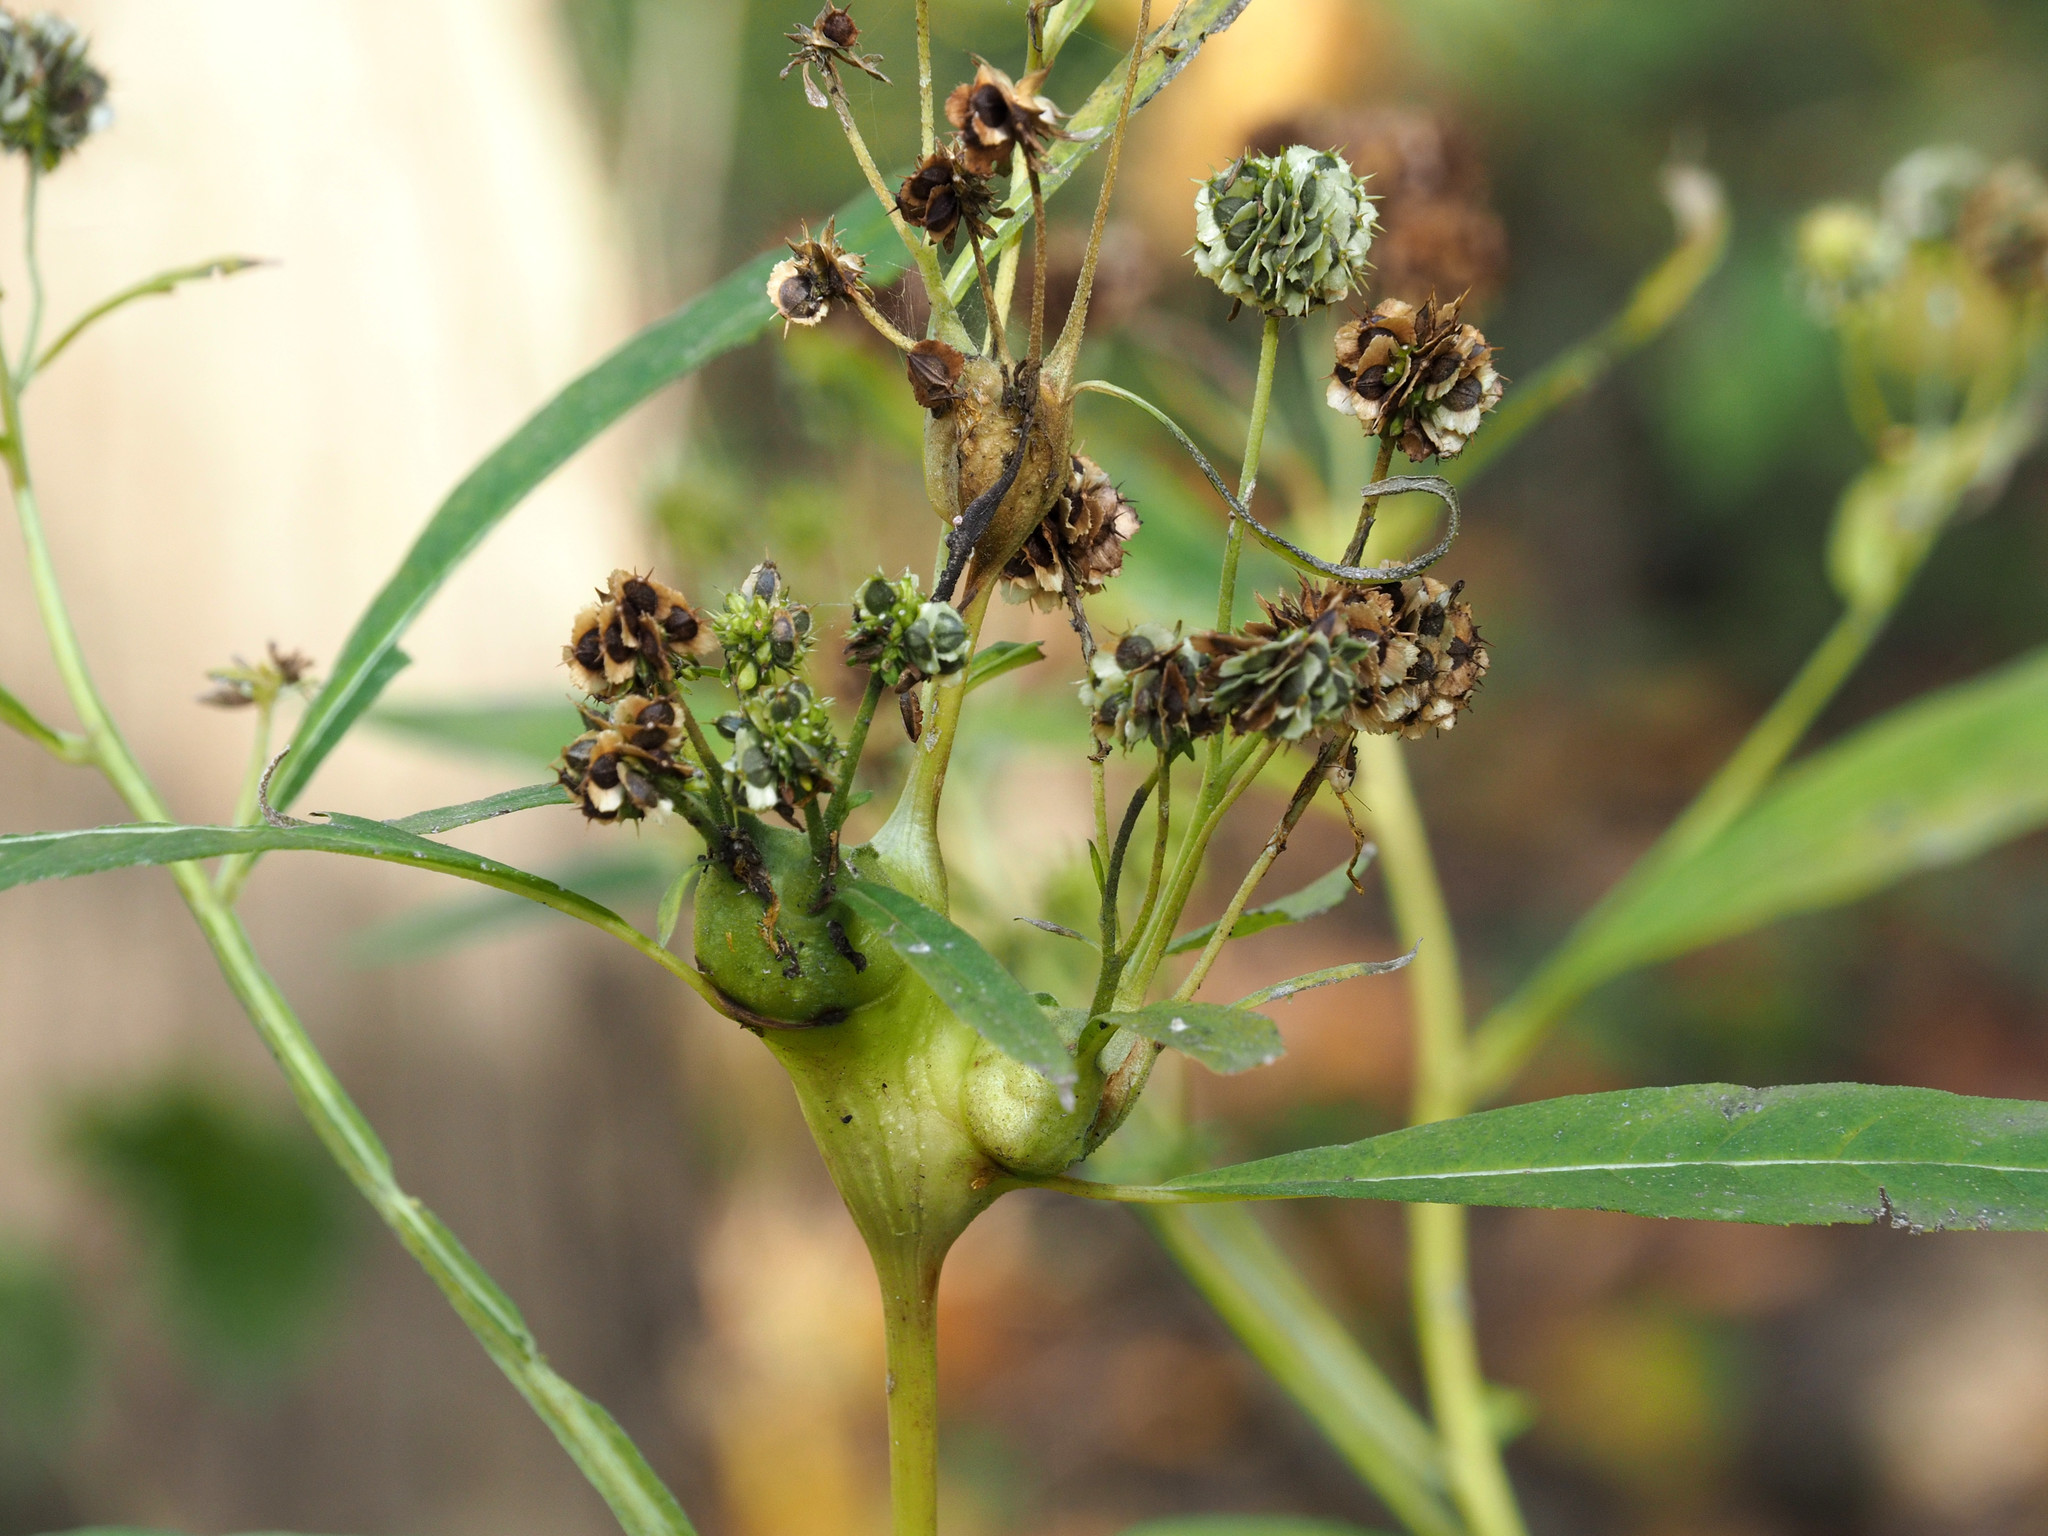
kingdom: Animalia
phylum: Arthropoda
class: Insecta
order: Diptera
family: Cecidomyiidae
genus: Neolasioptera
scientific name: Neolasioptera verbesinae
